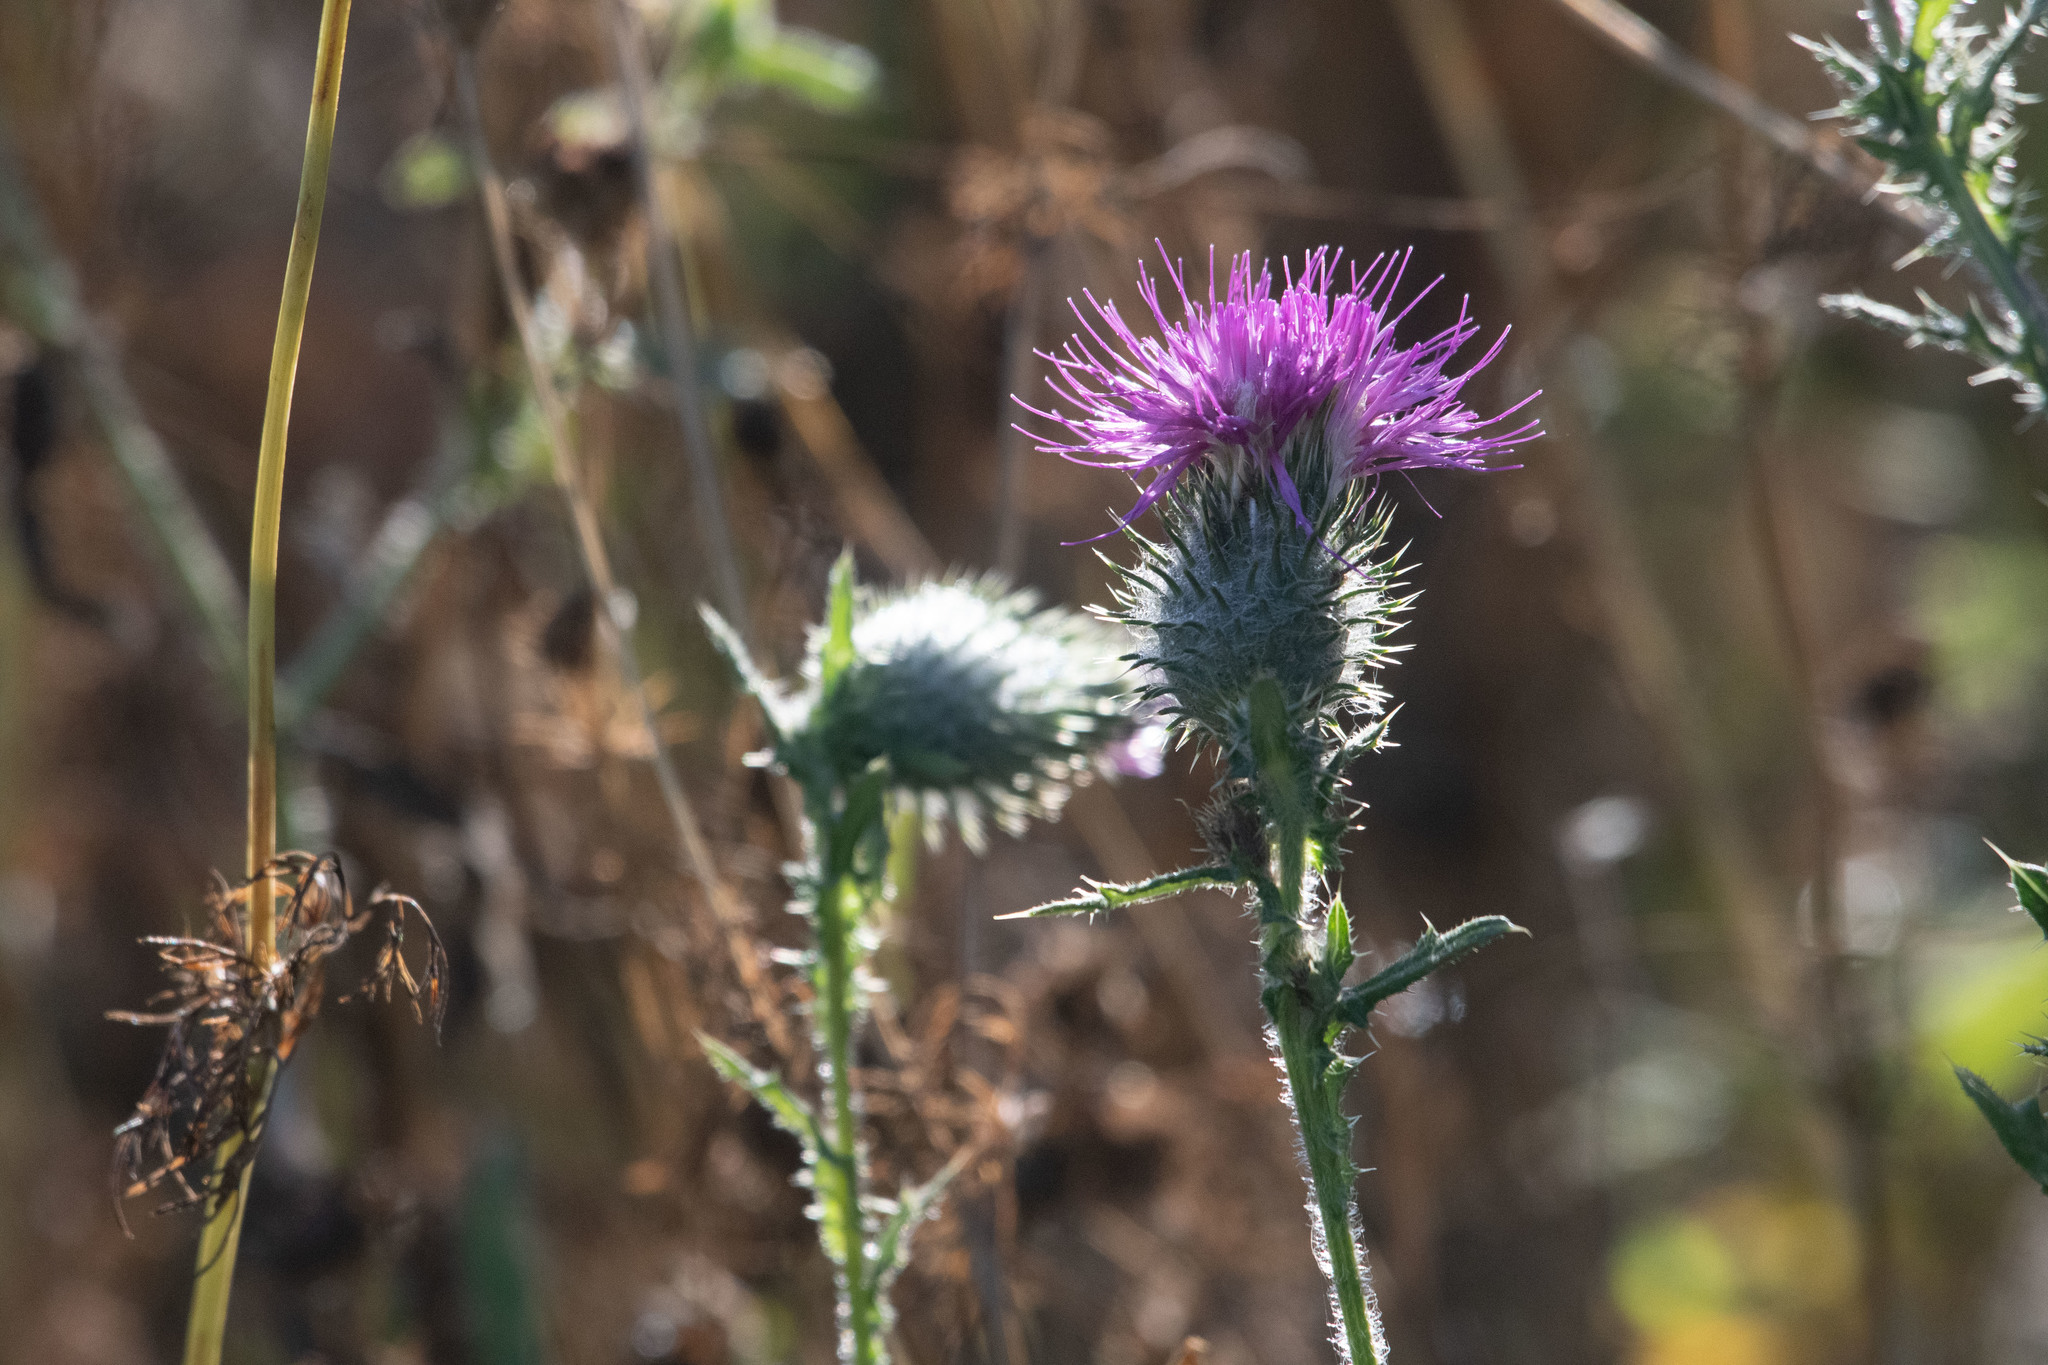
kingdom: Plantae
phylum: Tracheophyta
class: Magnoliopsida
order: Asterales
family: Asteraceae
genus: Cirsium
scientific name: Cirsium vulgare
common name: Bull thistle
